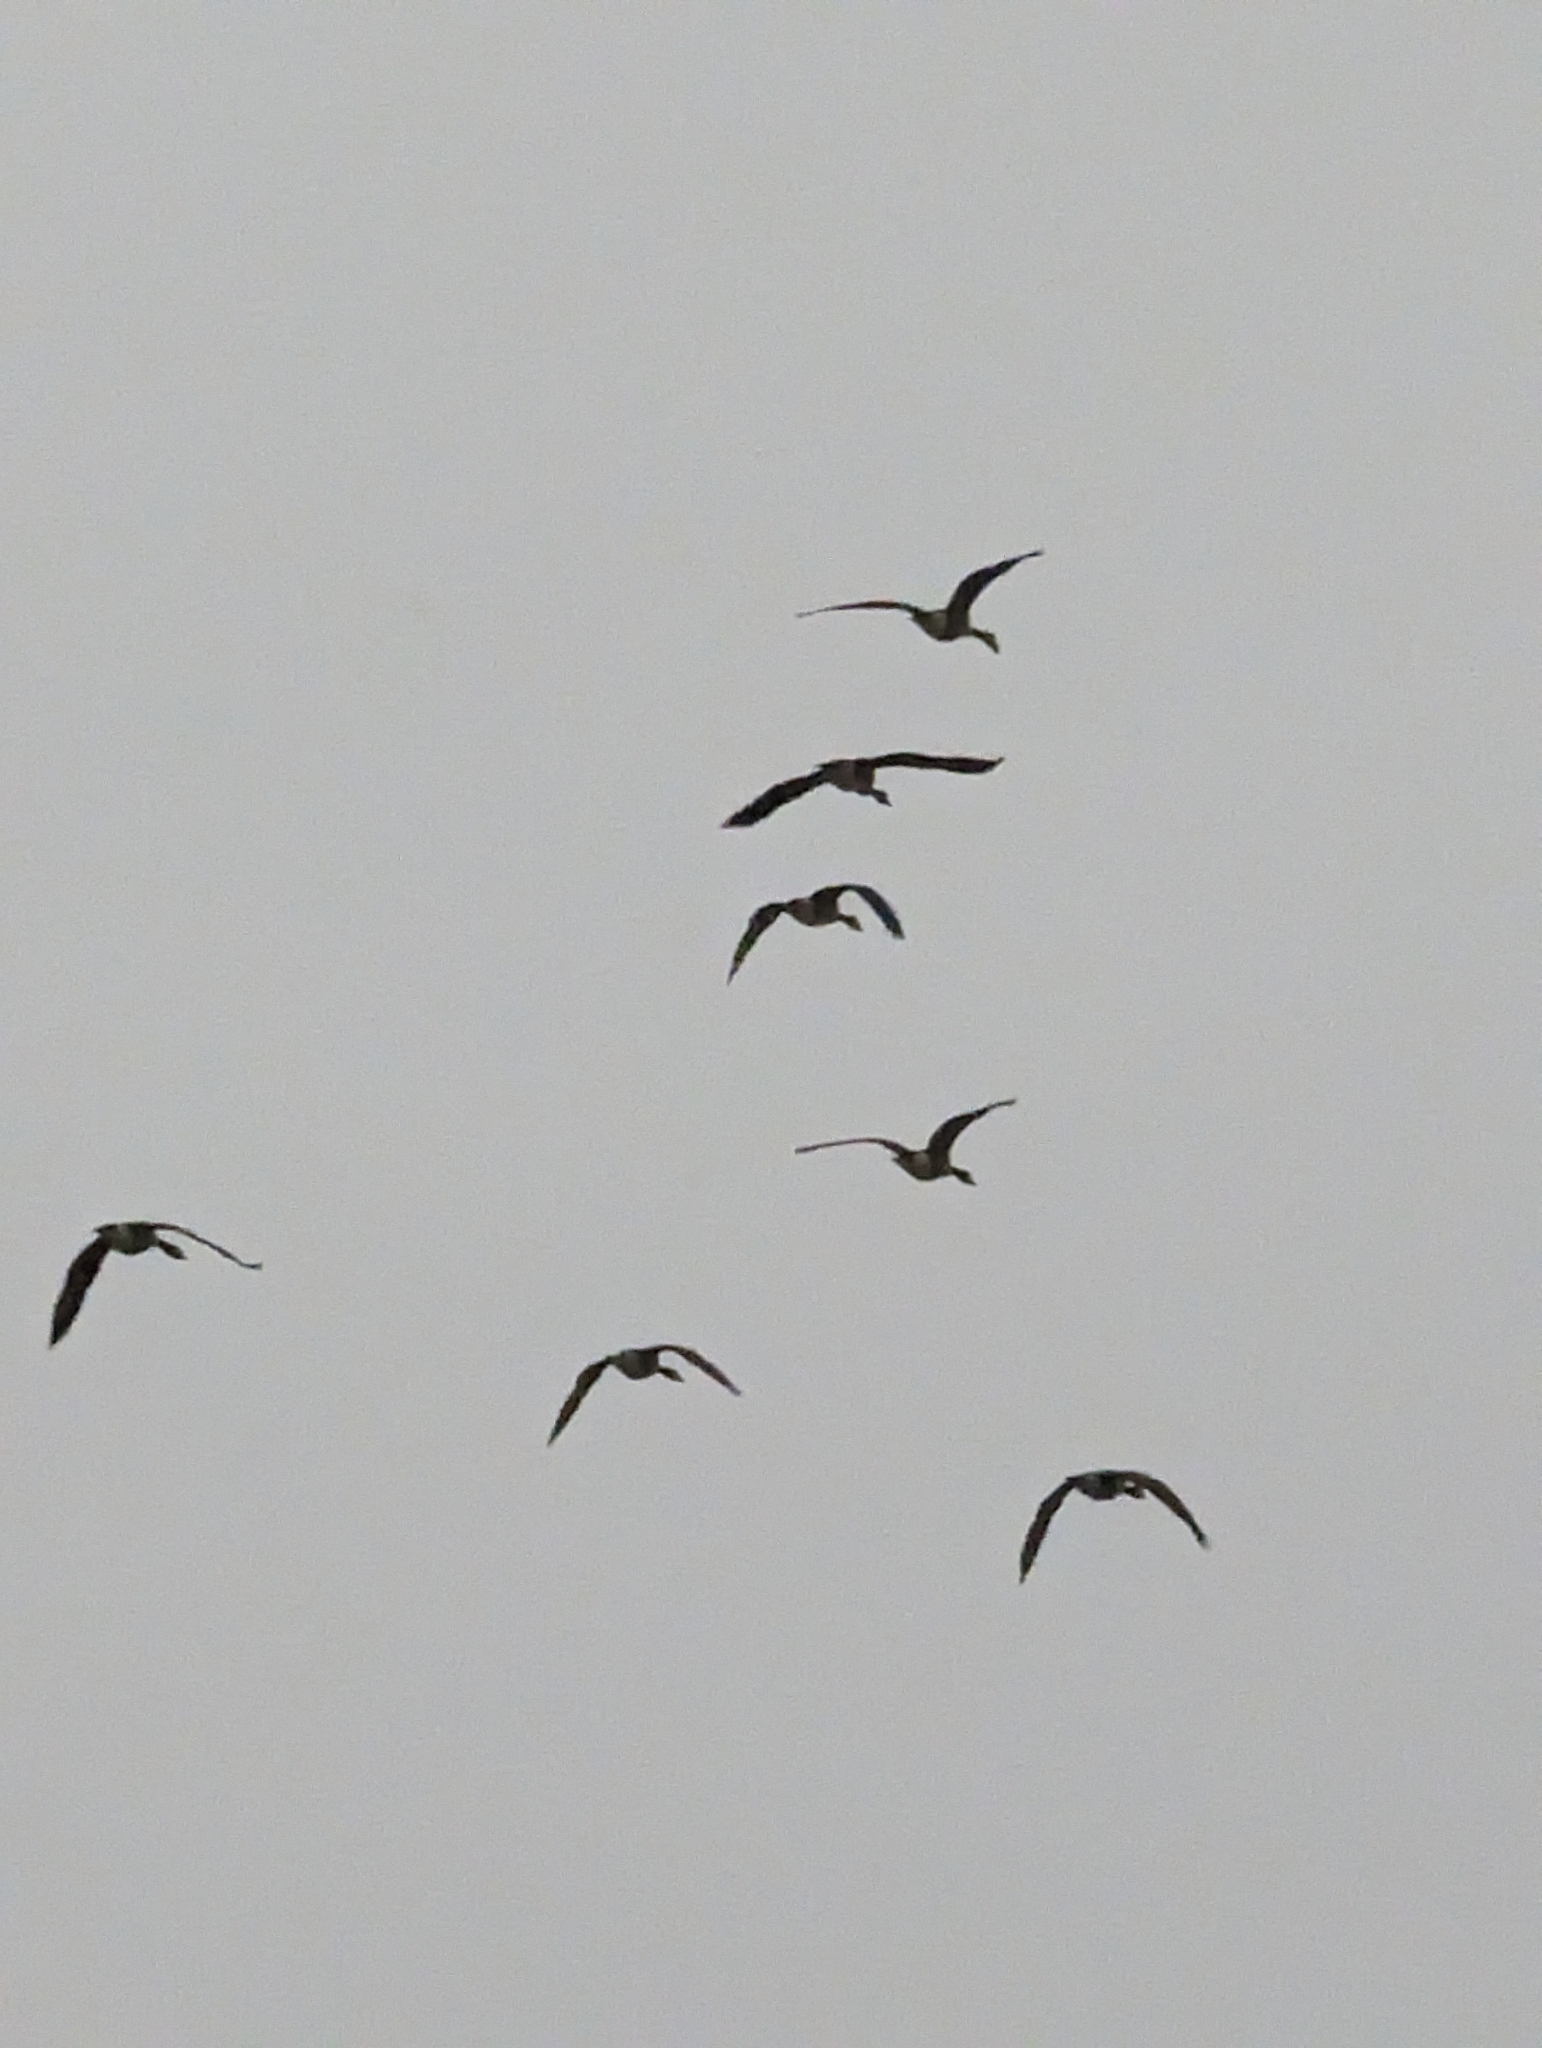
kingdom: Animalia
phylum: Chordata
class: Aves
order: Anseriformes
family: Anatidae
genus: Branta
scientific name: Branta canadensis
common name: Canada goose
